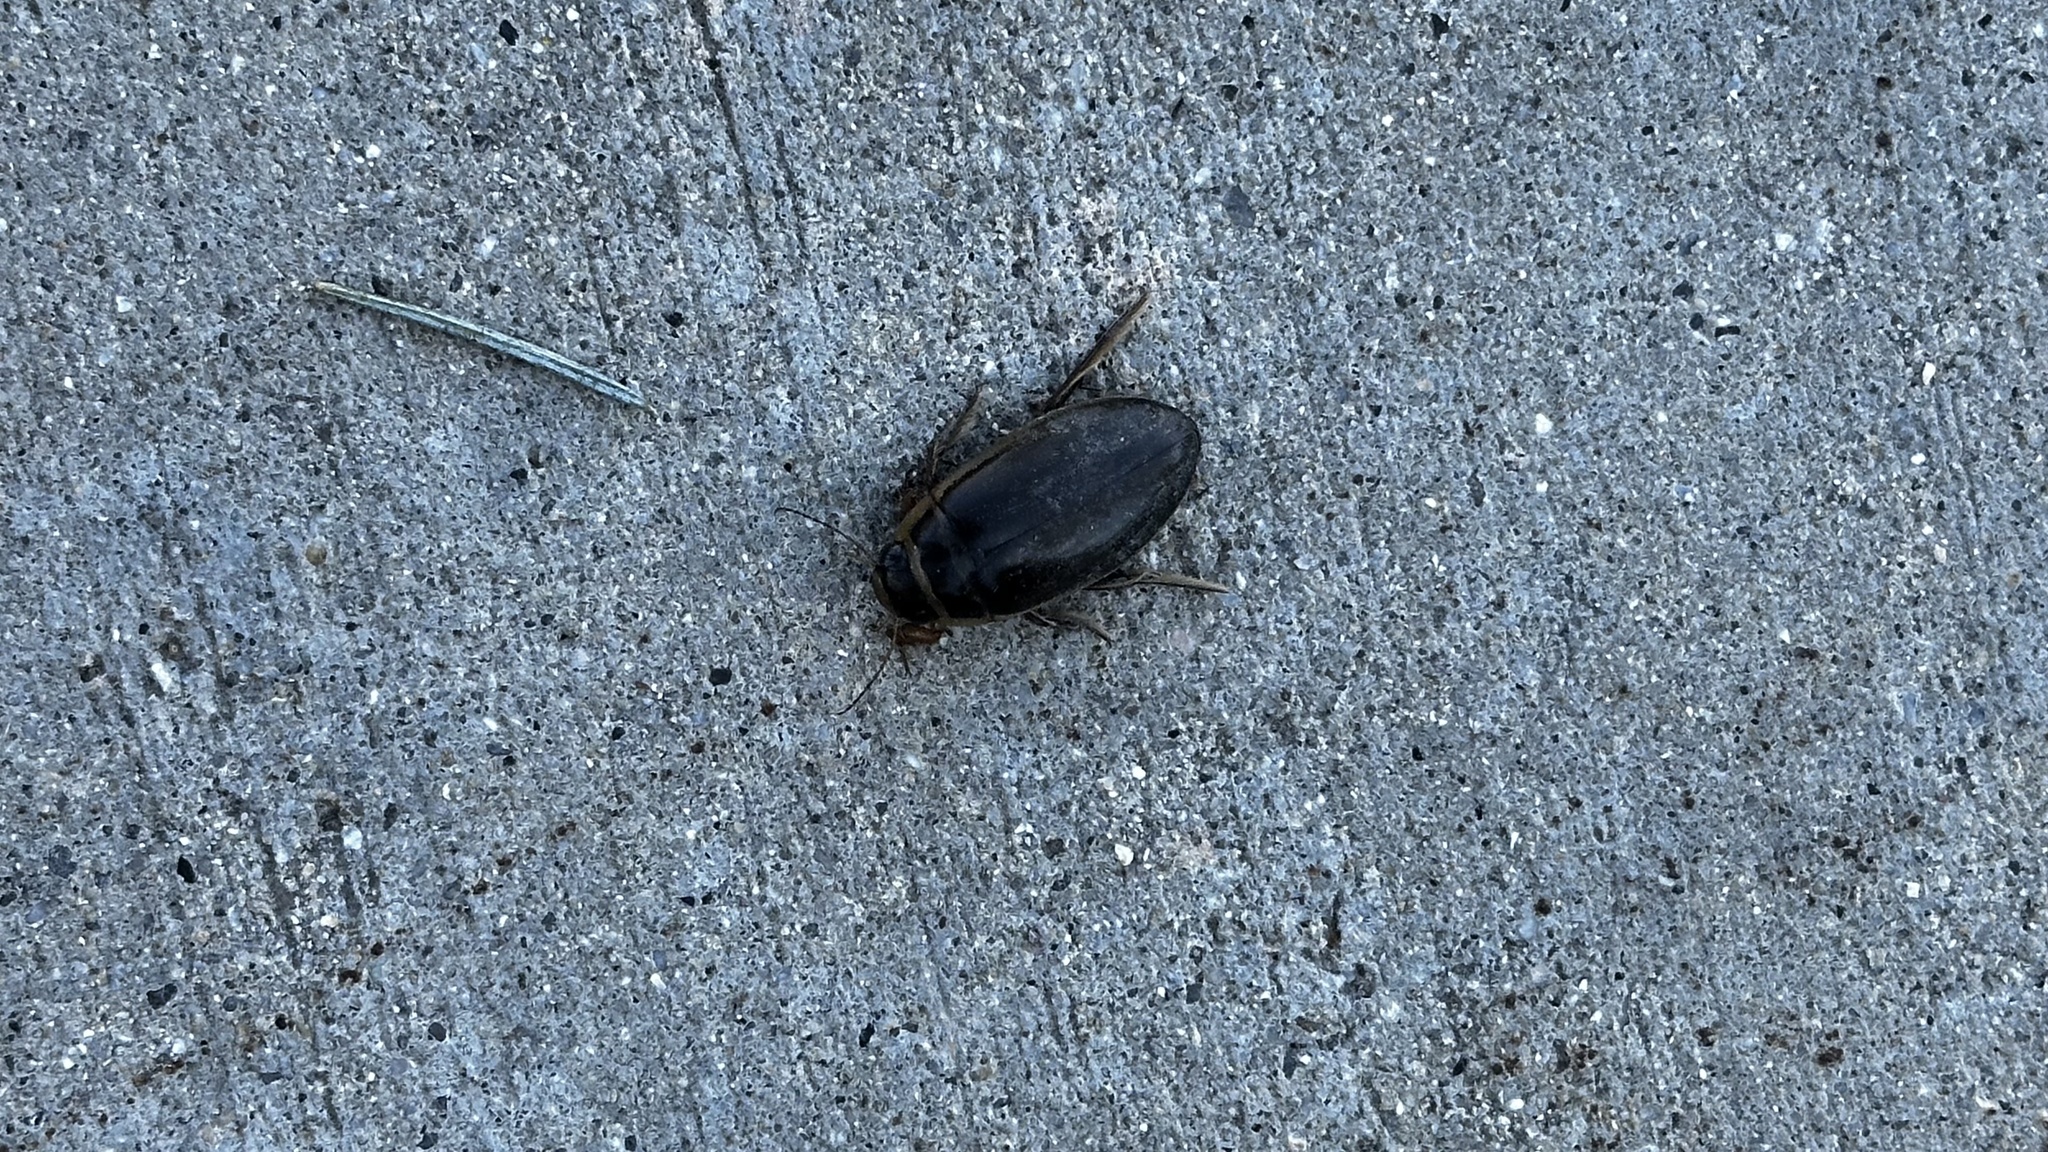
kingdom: Animalia
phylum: Arthropoda
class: Insecta
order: Coleoptera
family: Dytiscidae
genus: Dytiscus
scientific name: Dytiscus
